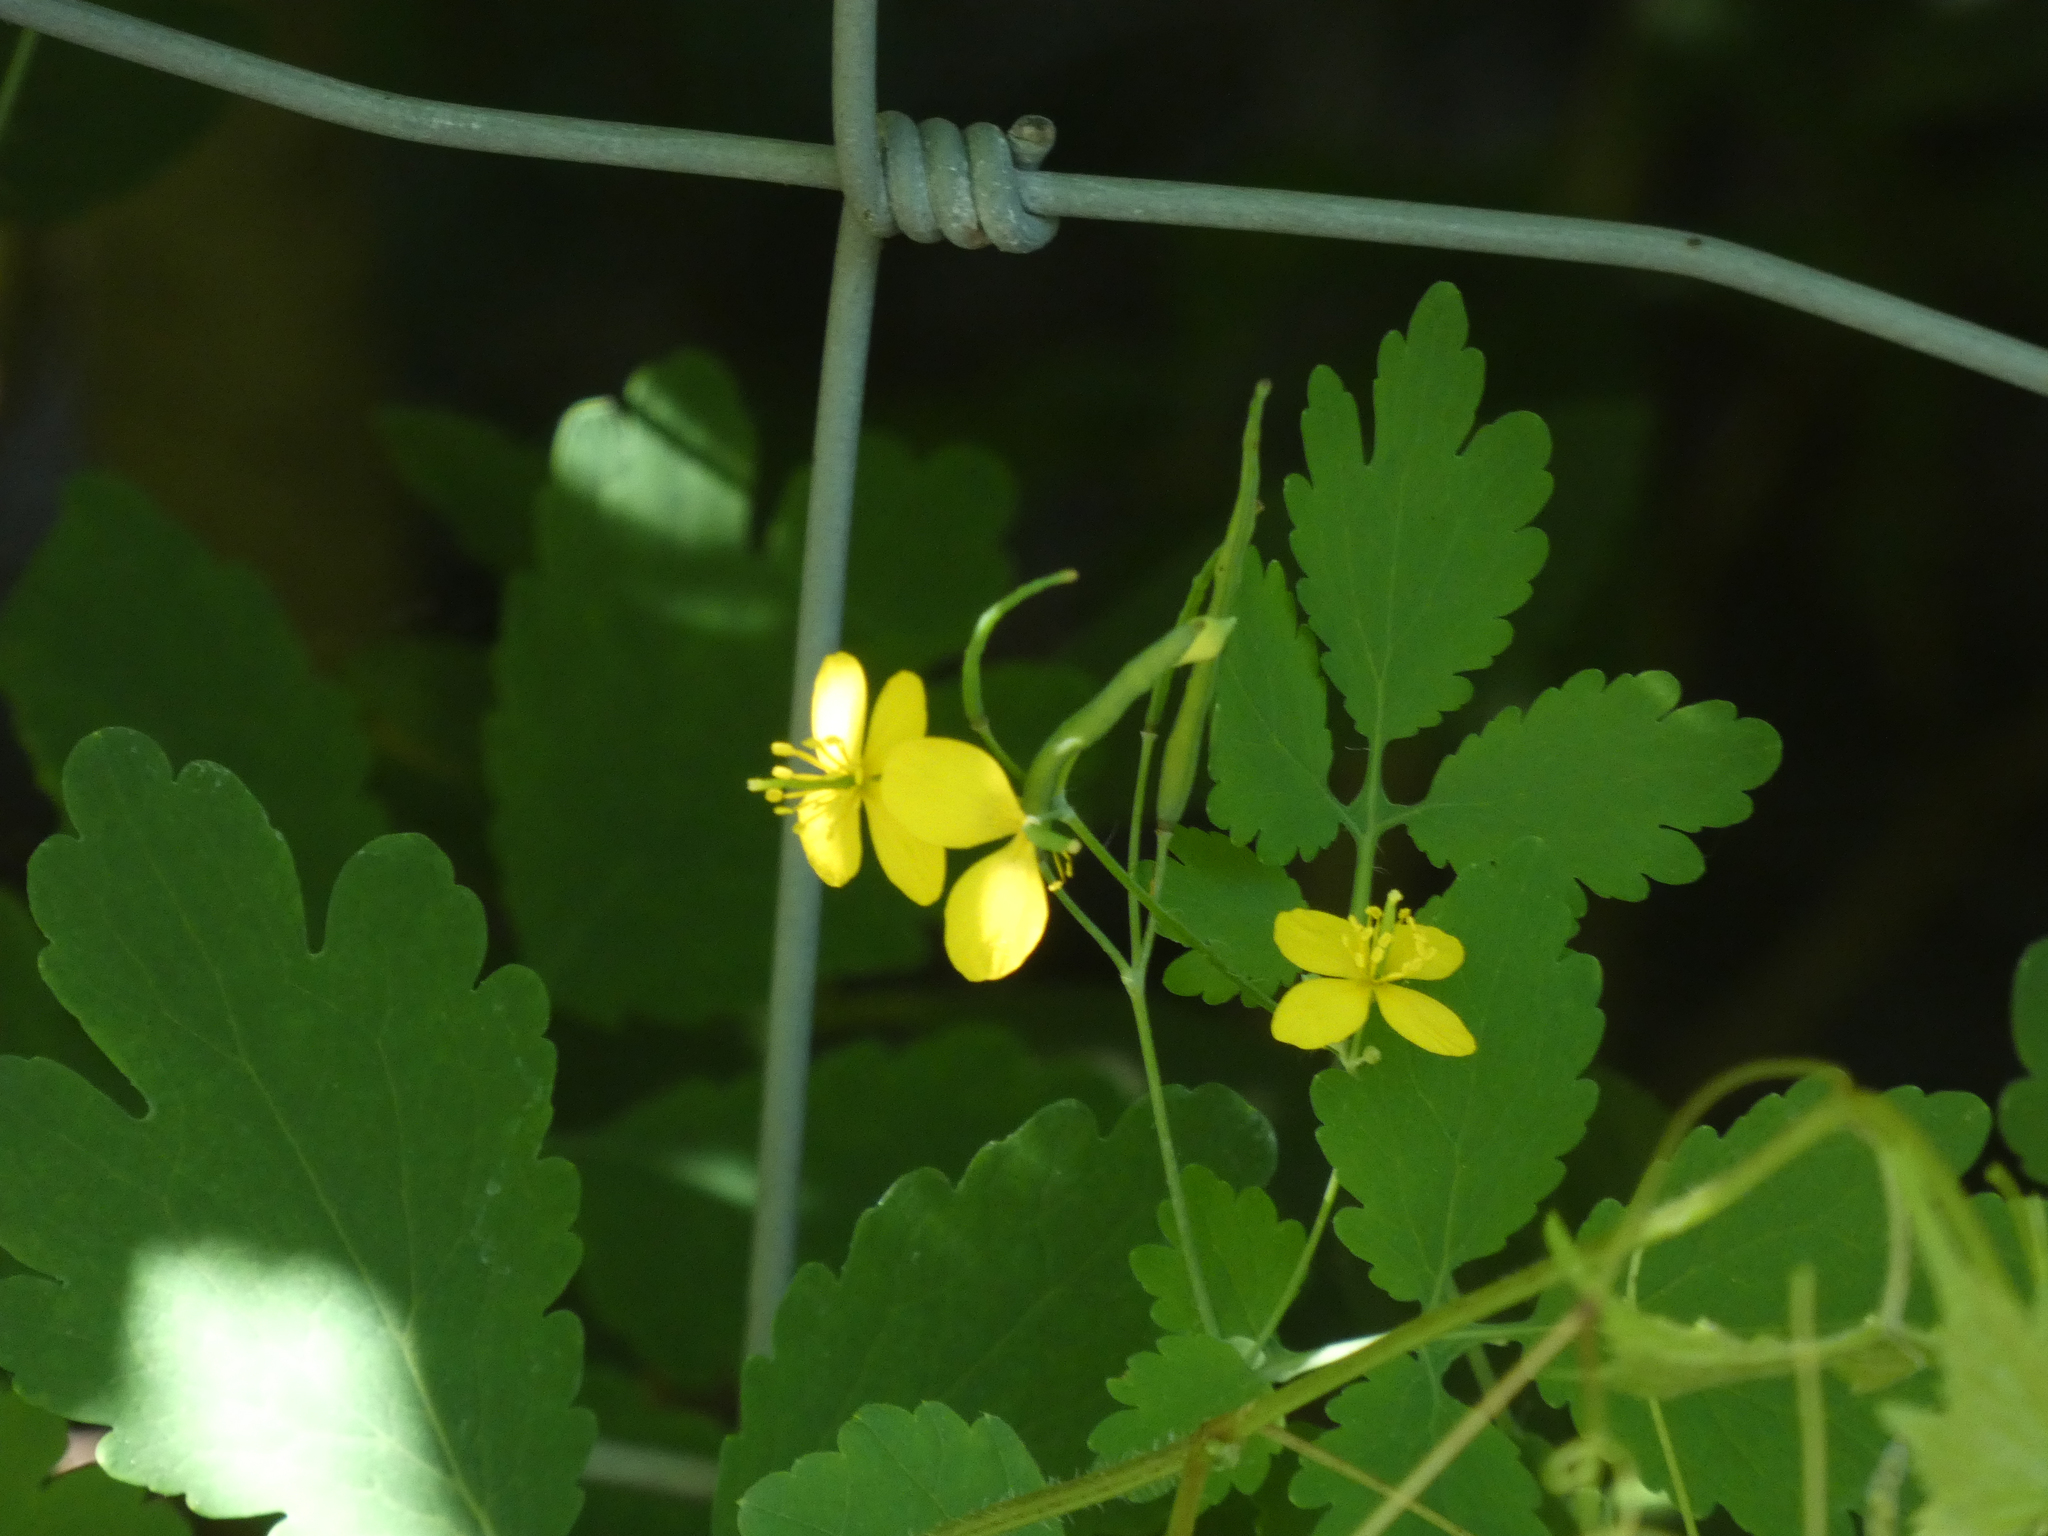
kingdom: Plantae
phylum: Tracheophyta
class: Magnoliopsida
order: Ranunculales
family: Papaveraceae
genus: Chelidonium
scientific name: Chelidonium majus
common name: Greater celandine
